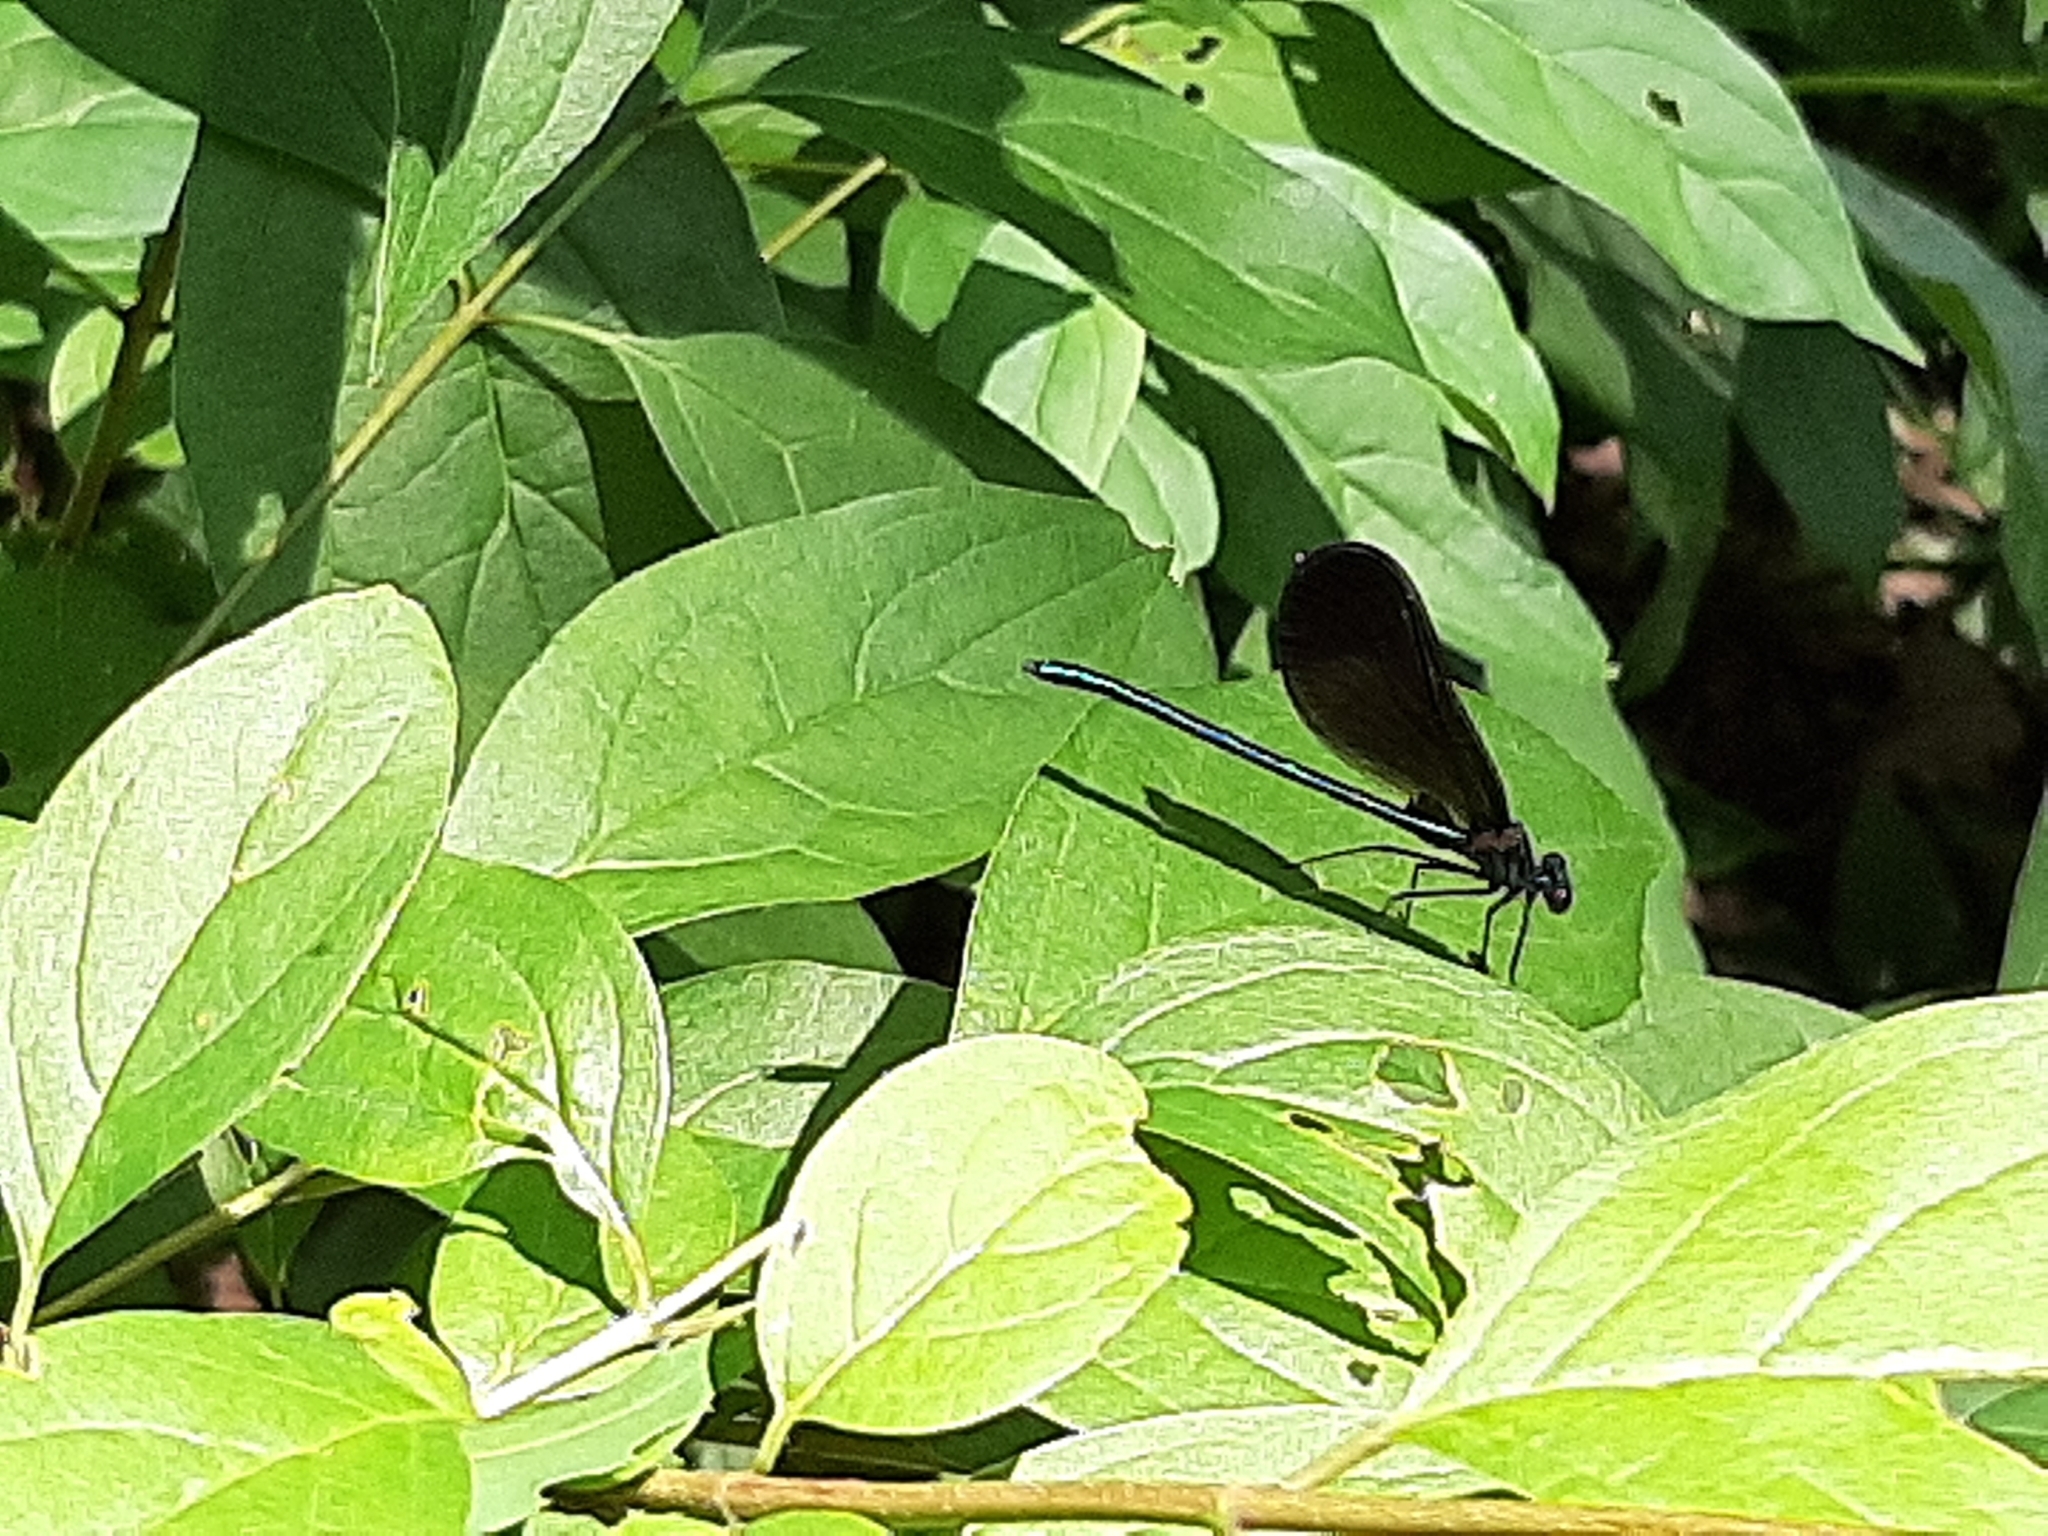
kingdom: Animalia
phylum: Arthropoda
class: Insecta
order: Odonata
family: Calopterygidae
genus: Calopteryx
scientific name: Calopteryx maculata
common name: Ebony jewelwing
